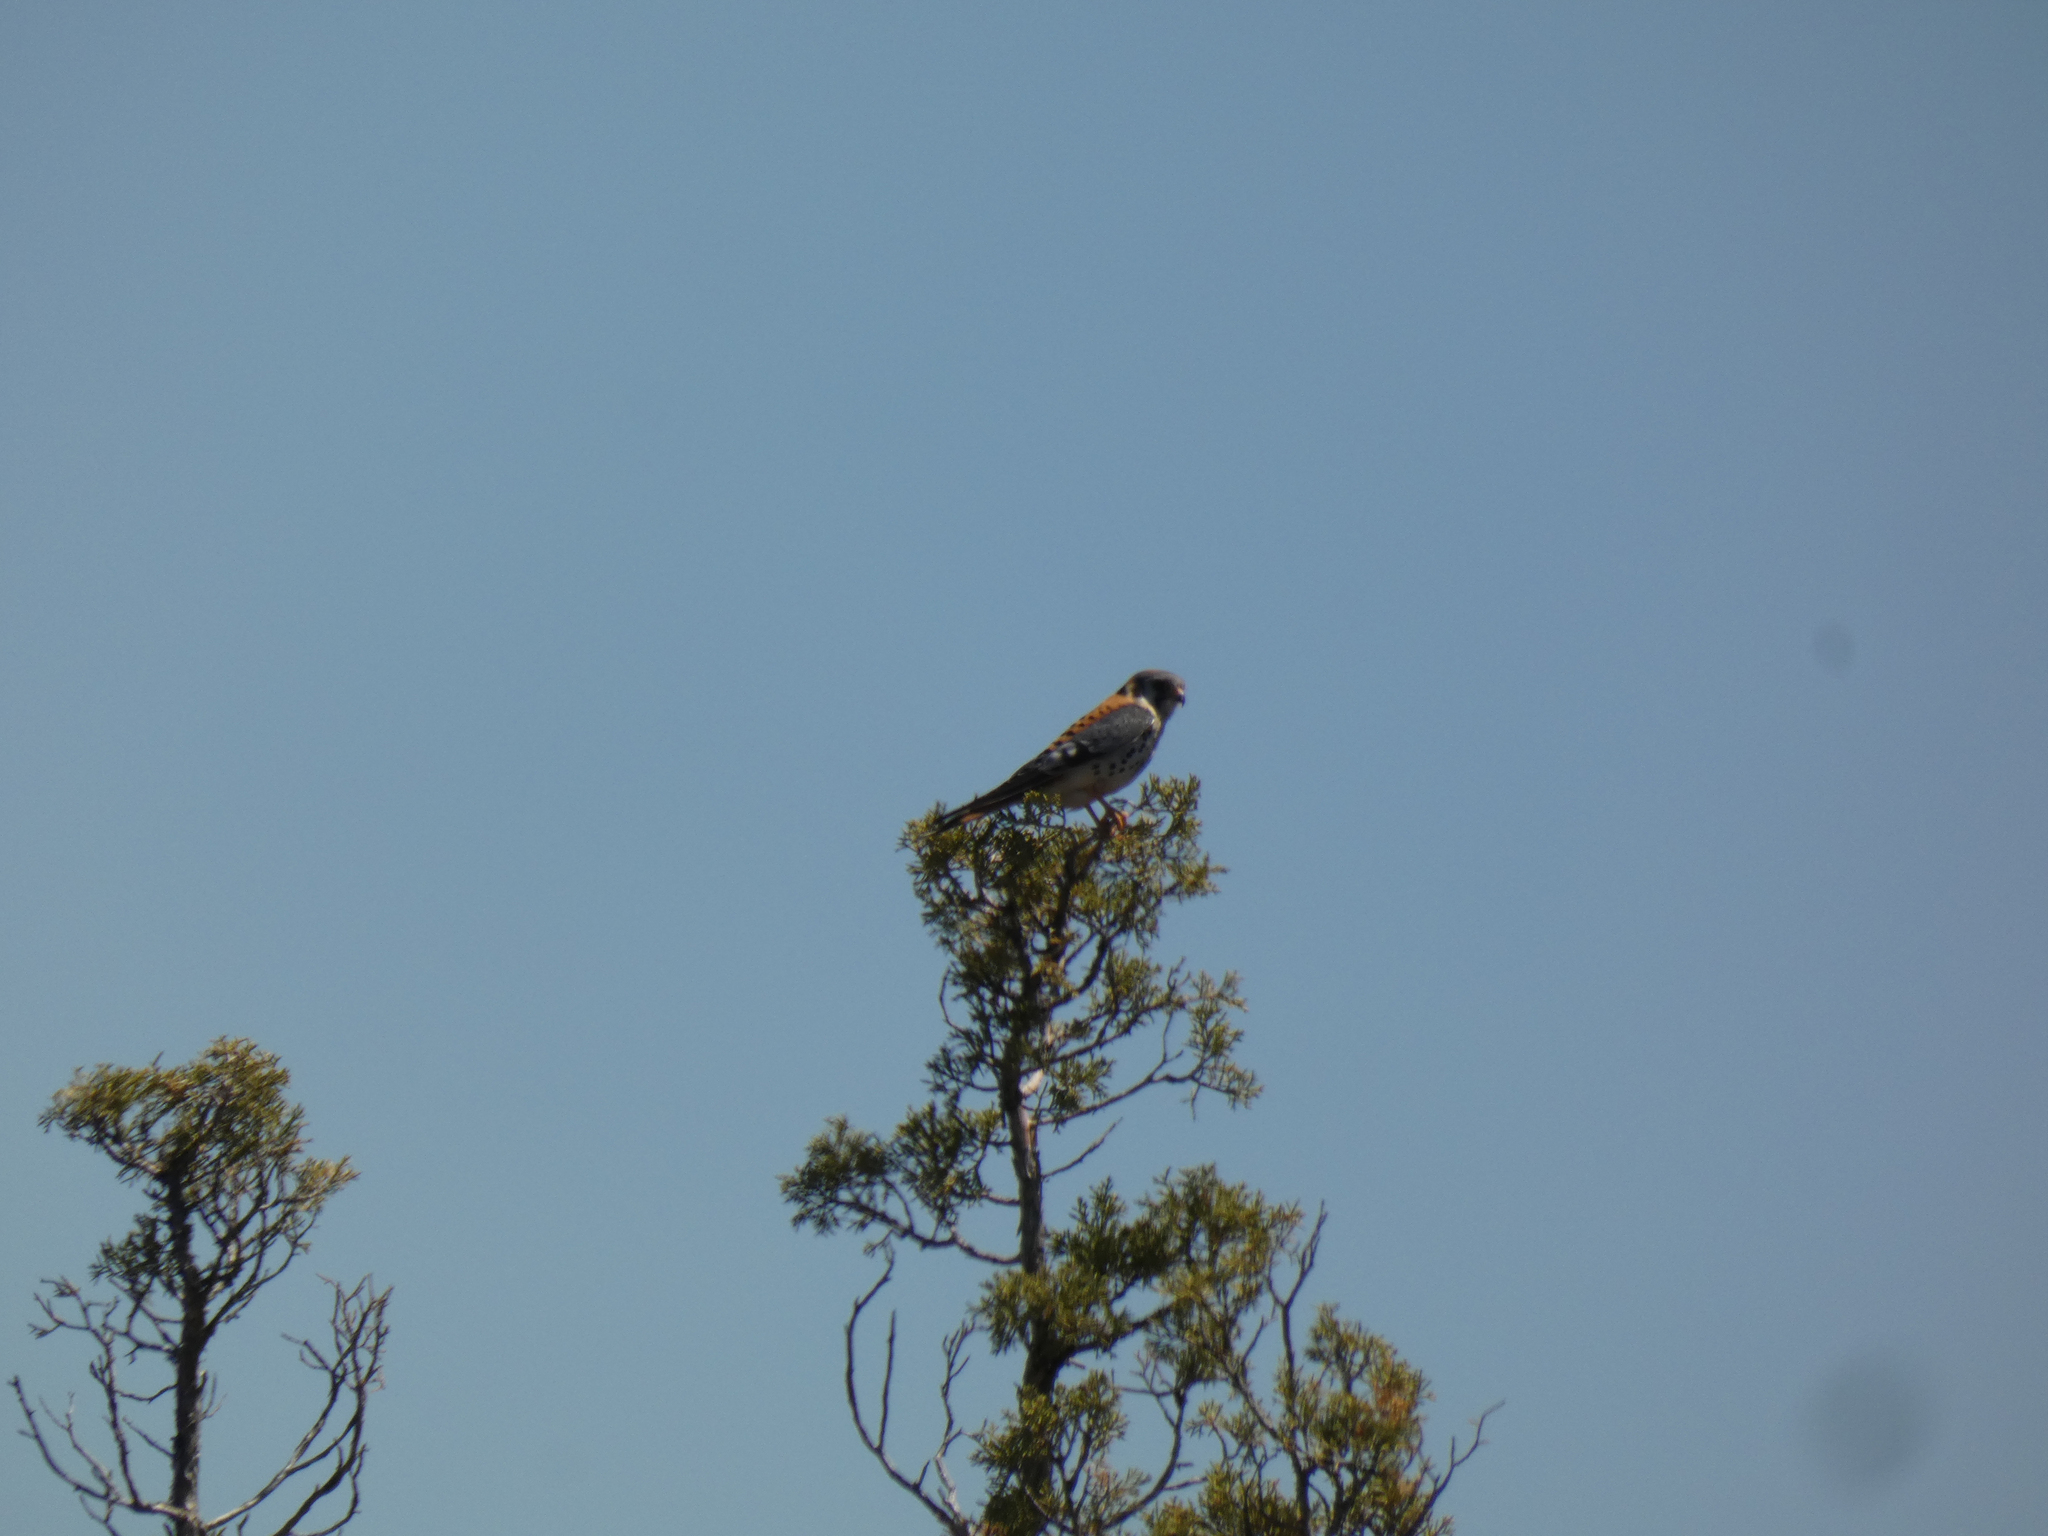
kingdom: Animalia
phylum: Chordata
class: Aves
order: Falconiformes
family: Falconidae
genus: Falco
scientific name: Falco sparverius
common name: American kestrel
